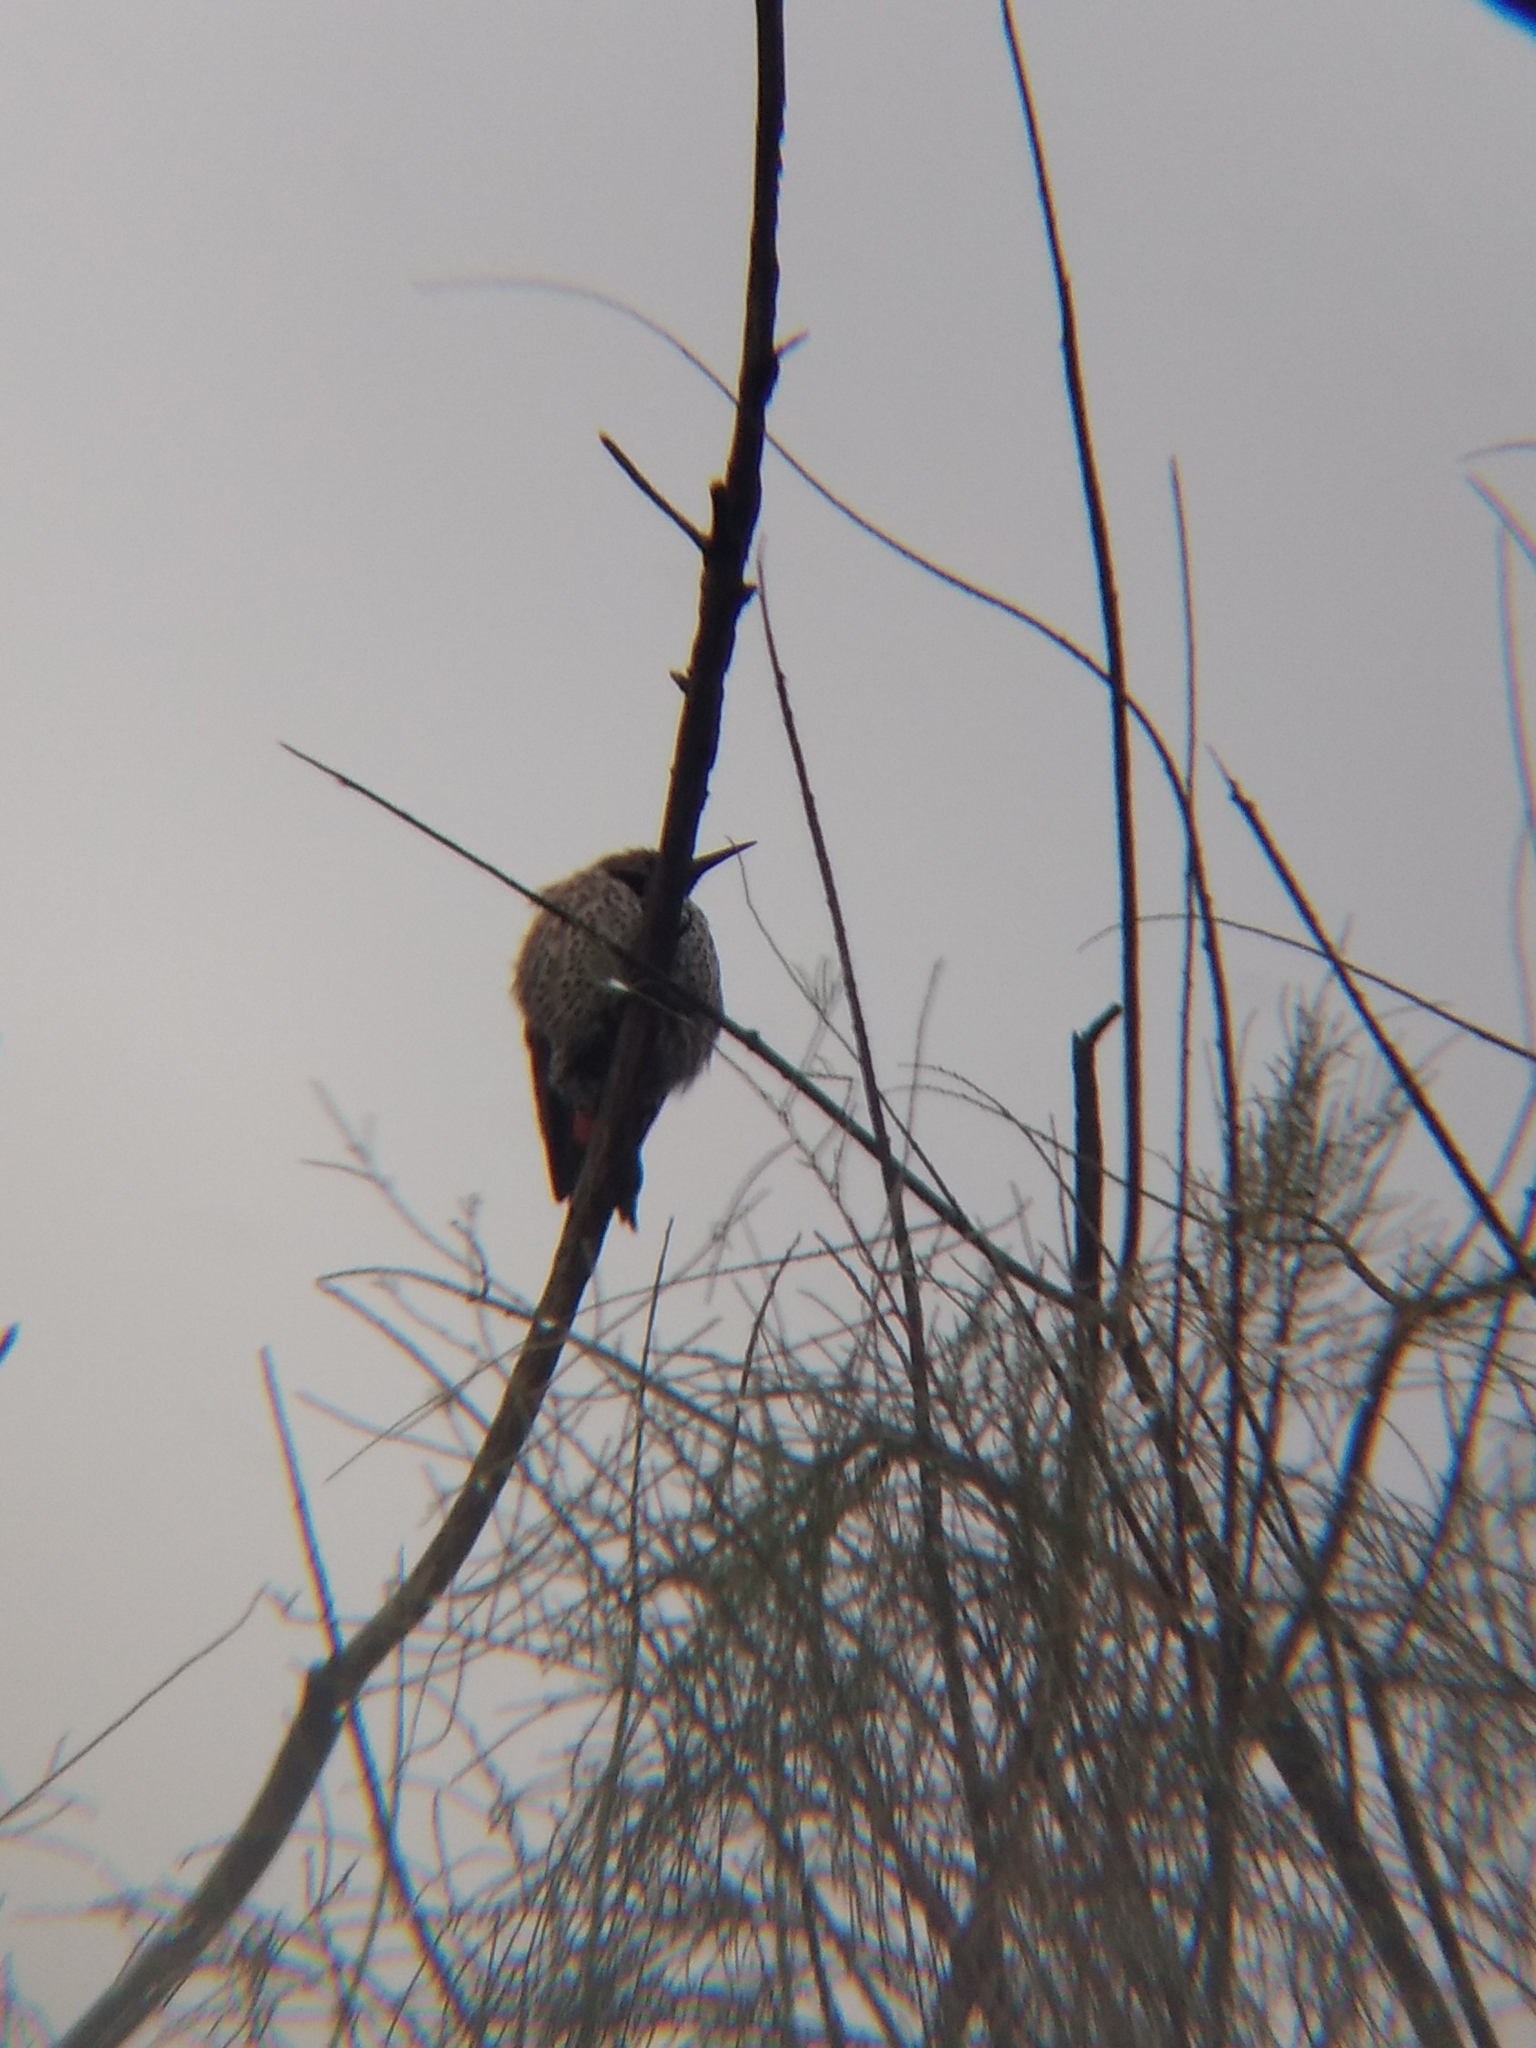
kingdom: Animalia
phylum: Chordata
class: Aves
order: Piciformes
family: Picidae
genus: Colaptes
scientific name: Colaptes auratus
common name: Northern flicker
